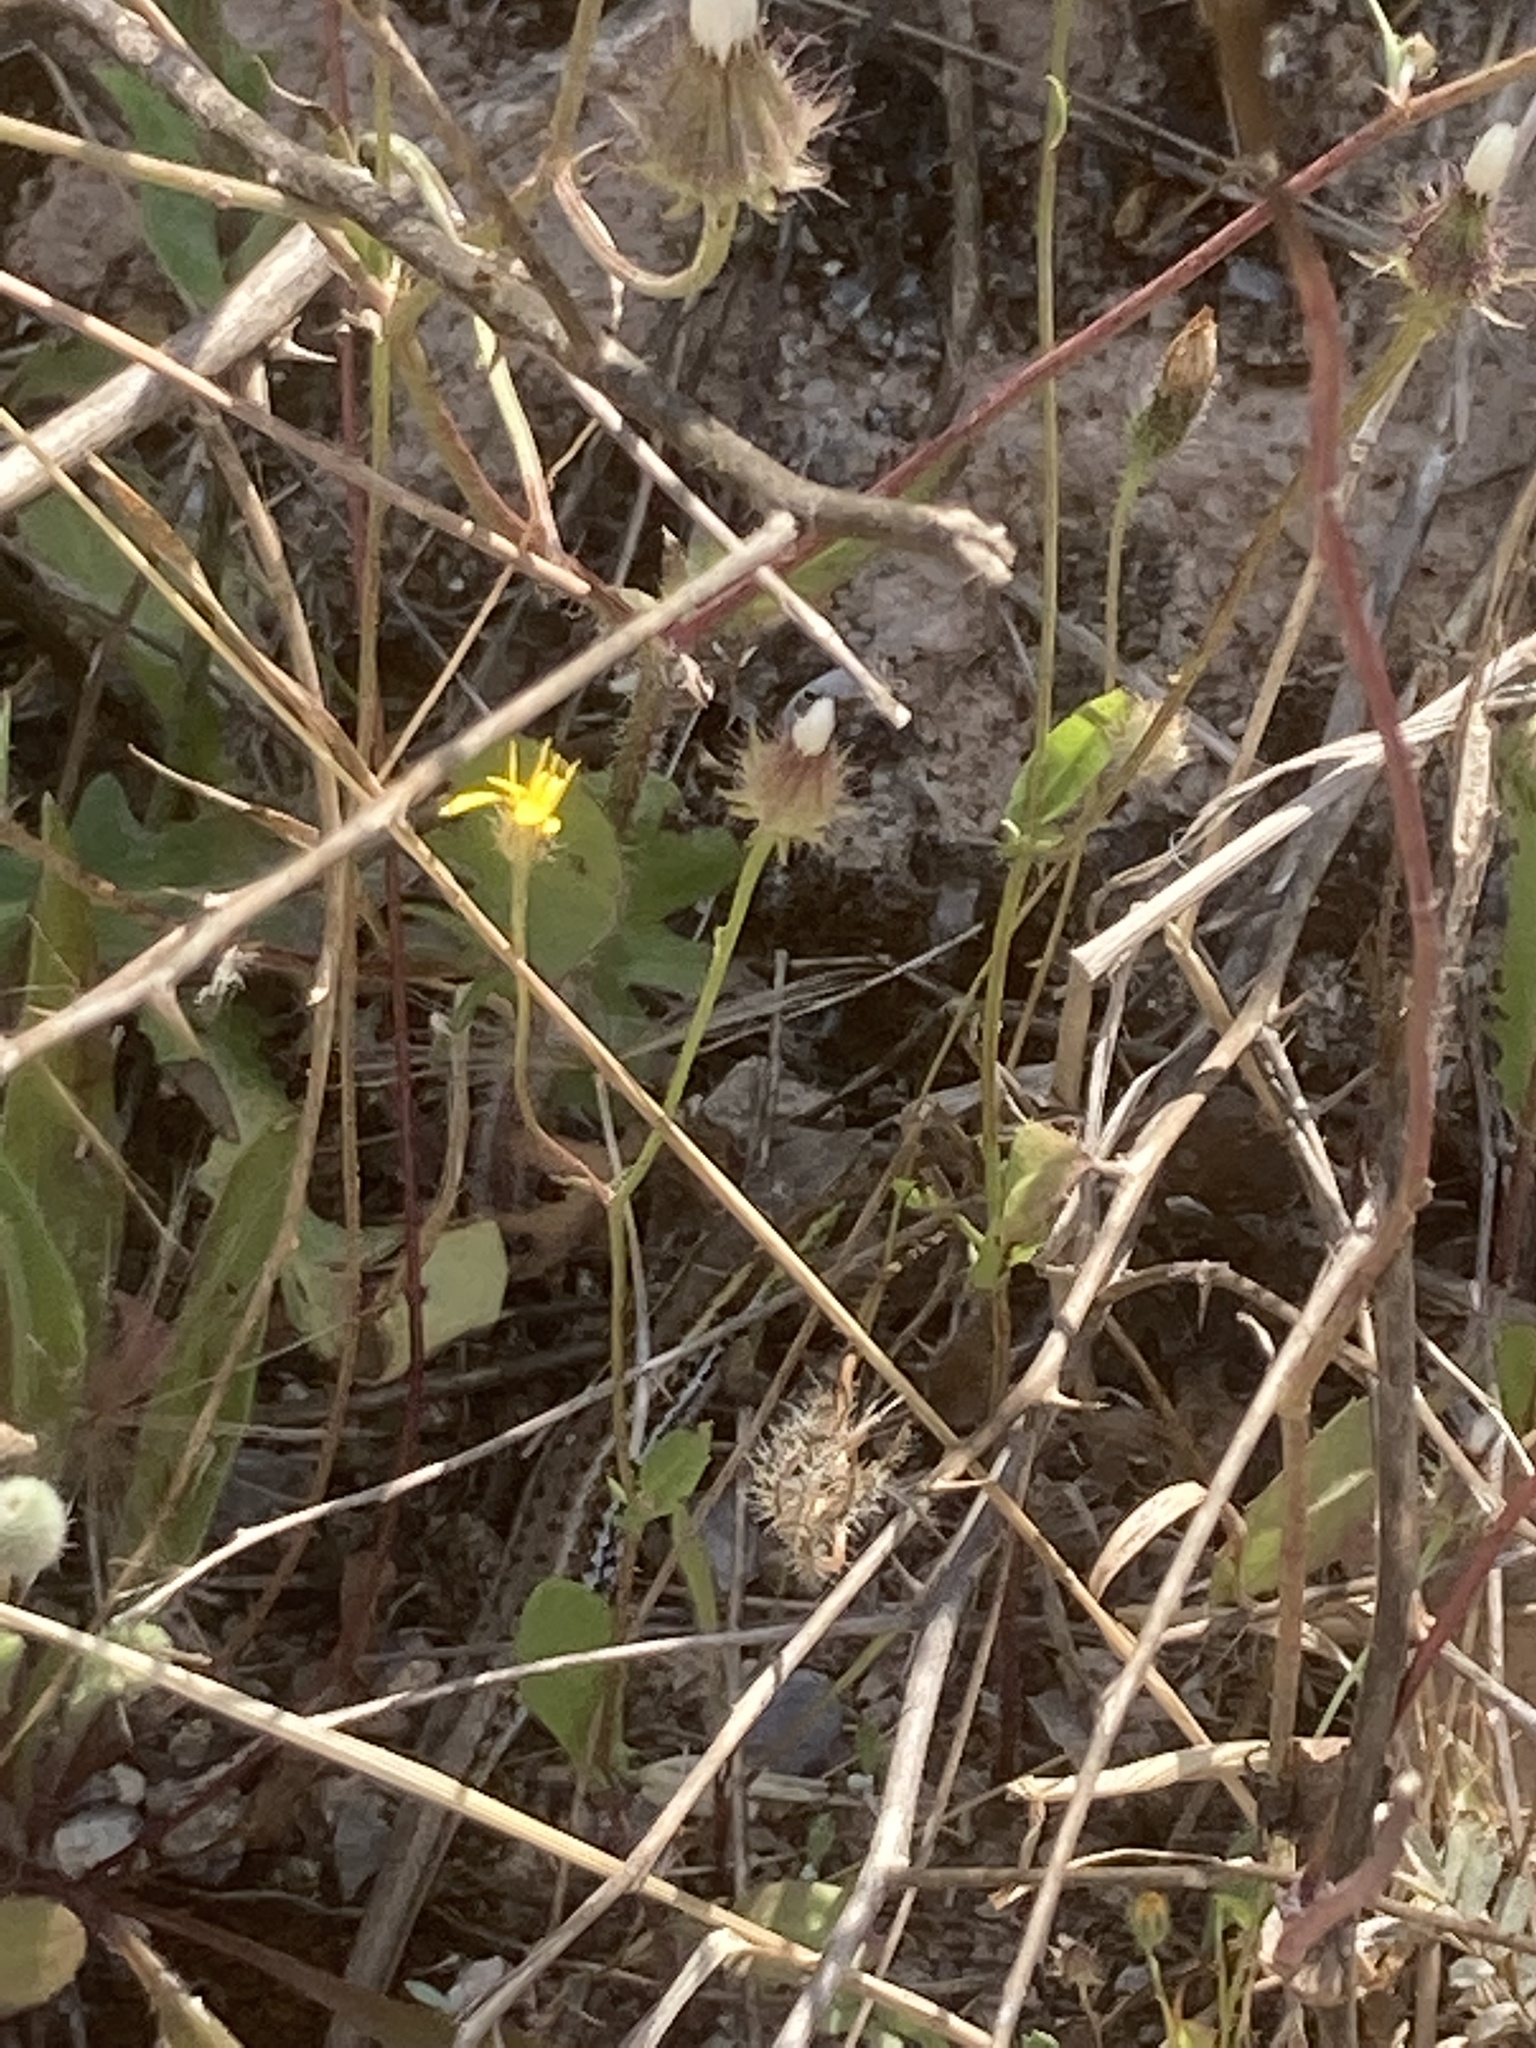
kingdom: Animalia
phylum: Chordata
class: Squamata
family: Lacertidae
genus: Ophisops
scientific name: Ophisops elegans
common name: Snake-eyed lizard
